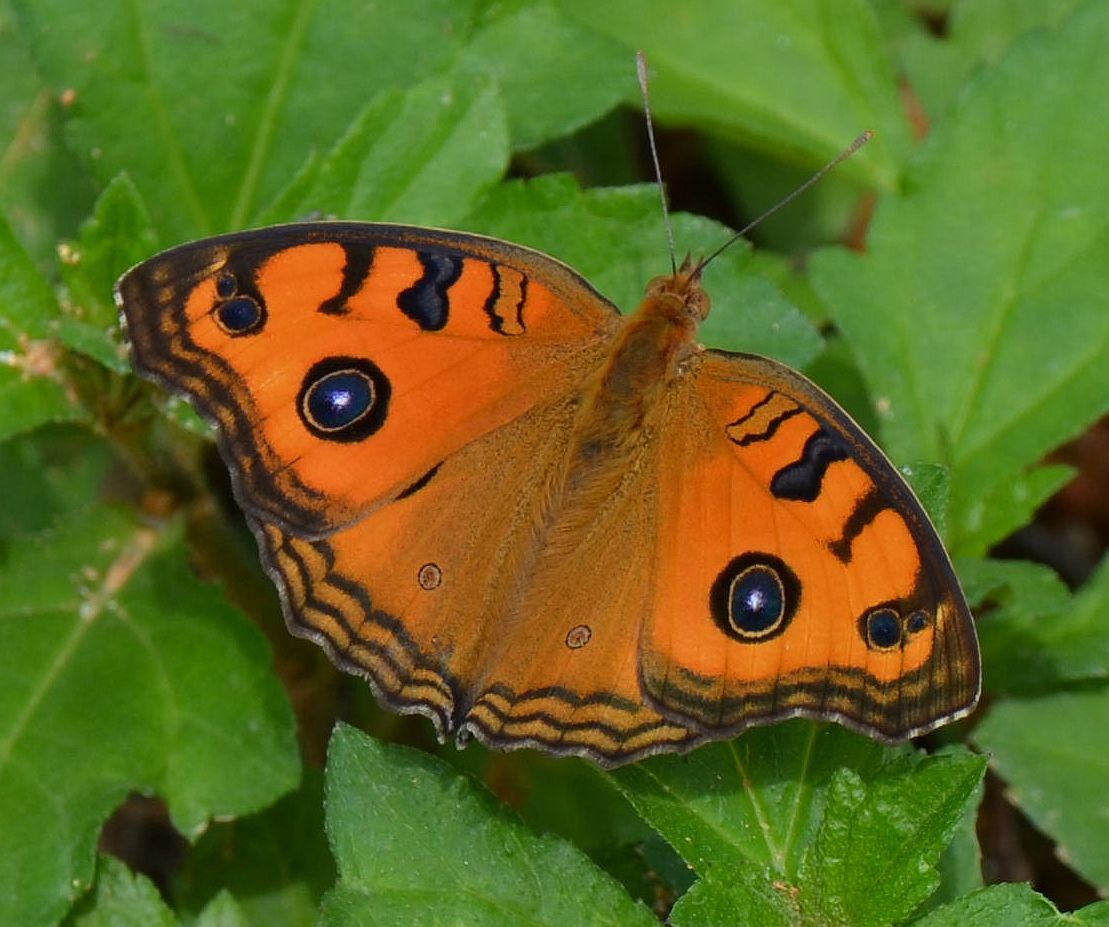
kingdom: Animalia
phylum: Arthropoda
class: Insecta
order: Lepidoptera
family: Nymphalidae
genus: Junonia
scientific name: Junonia almana
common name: Peacock pansy
